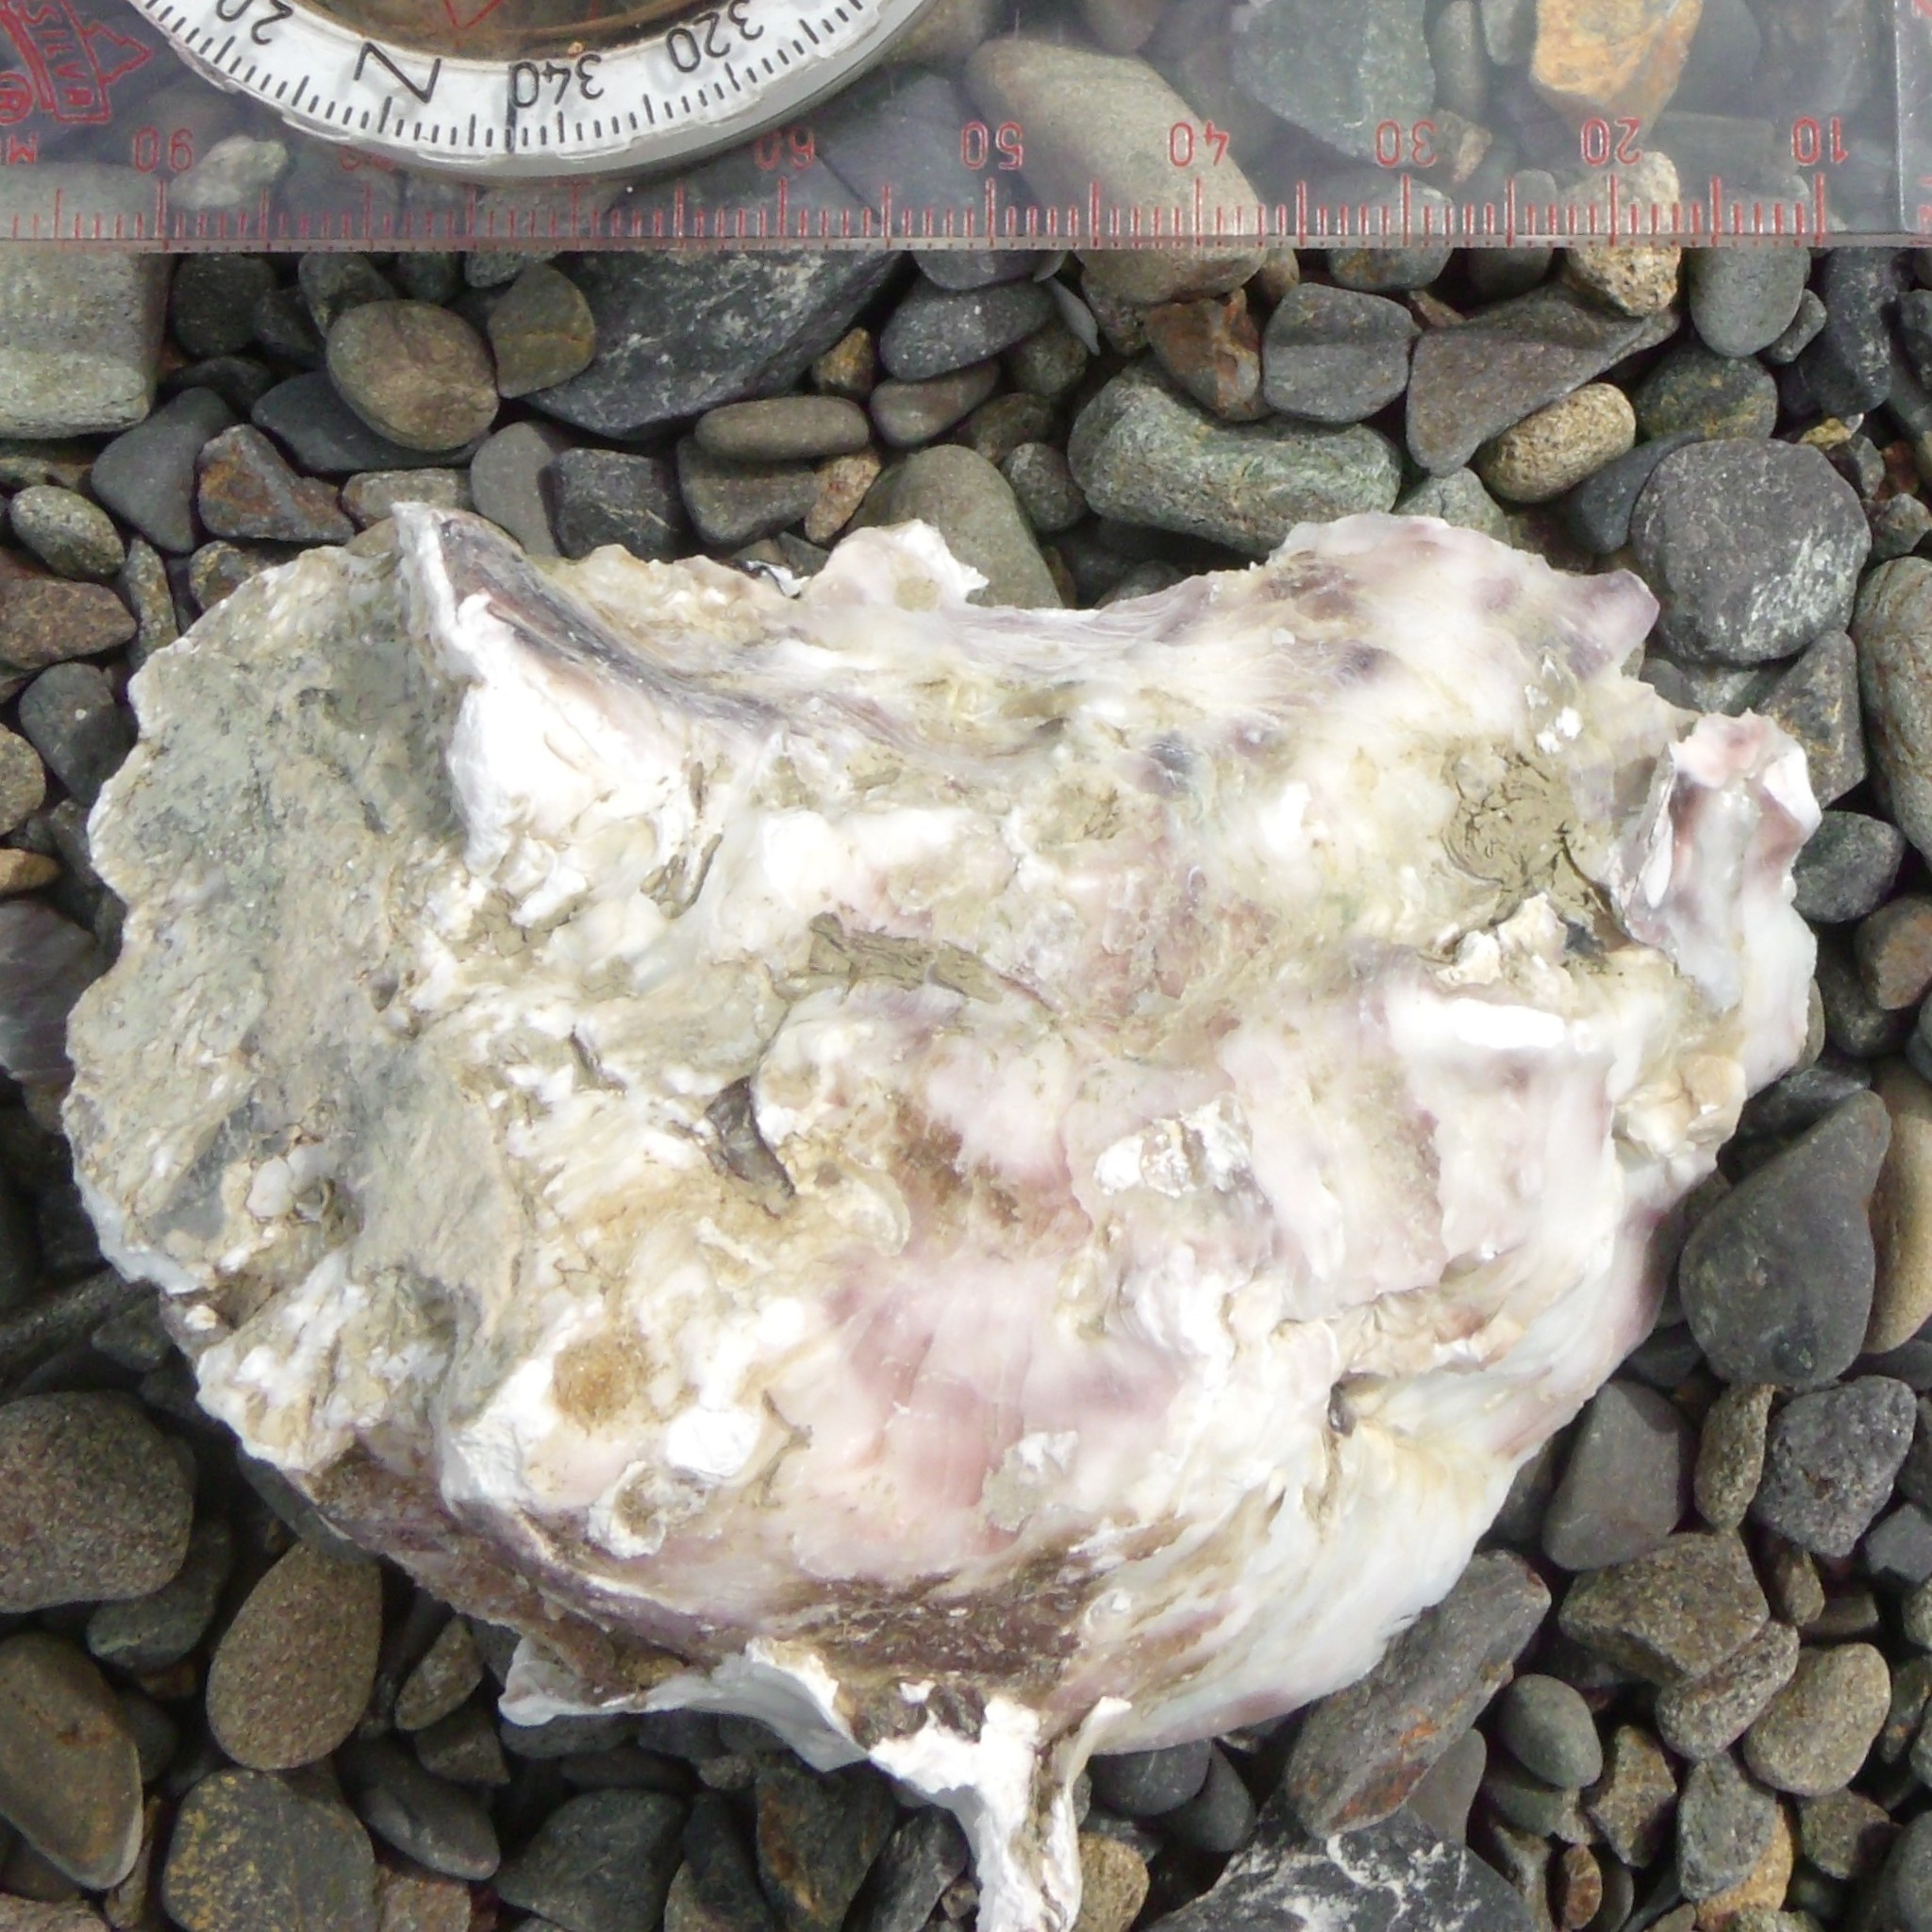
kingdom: Animalia
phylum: Mollusca
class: Bivalvia
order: Ostreida
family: Ostreidae
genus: Magallana
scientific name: Magallana gigas
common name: Pacific oyster
